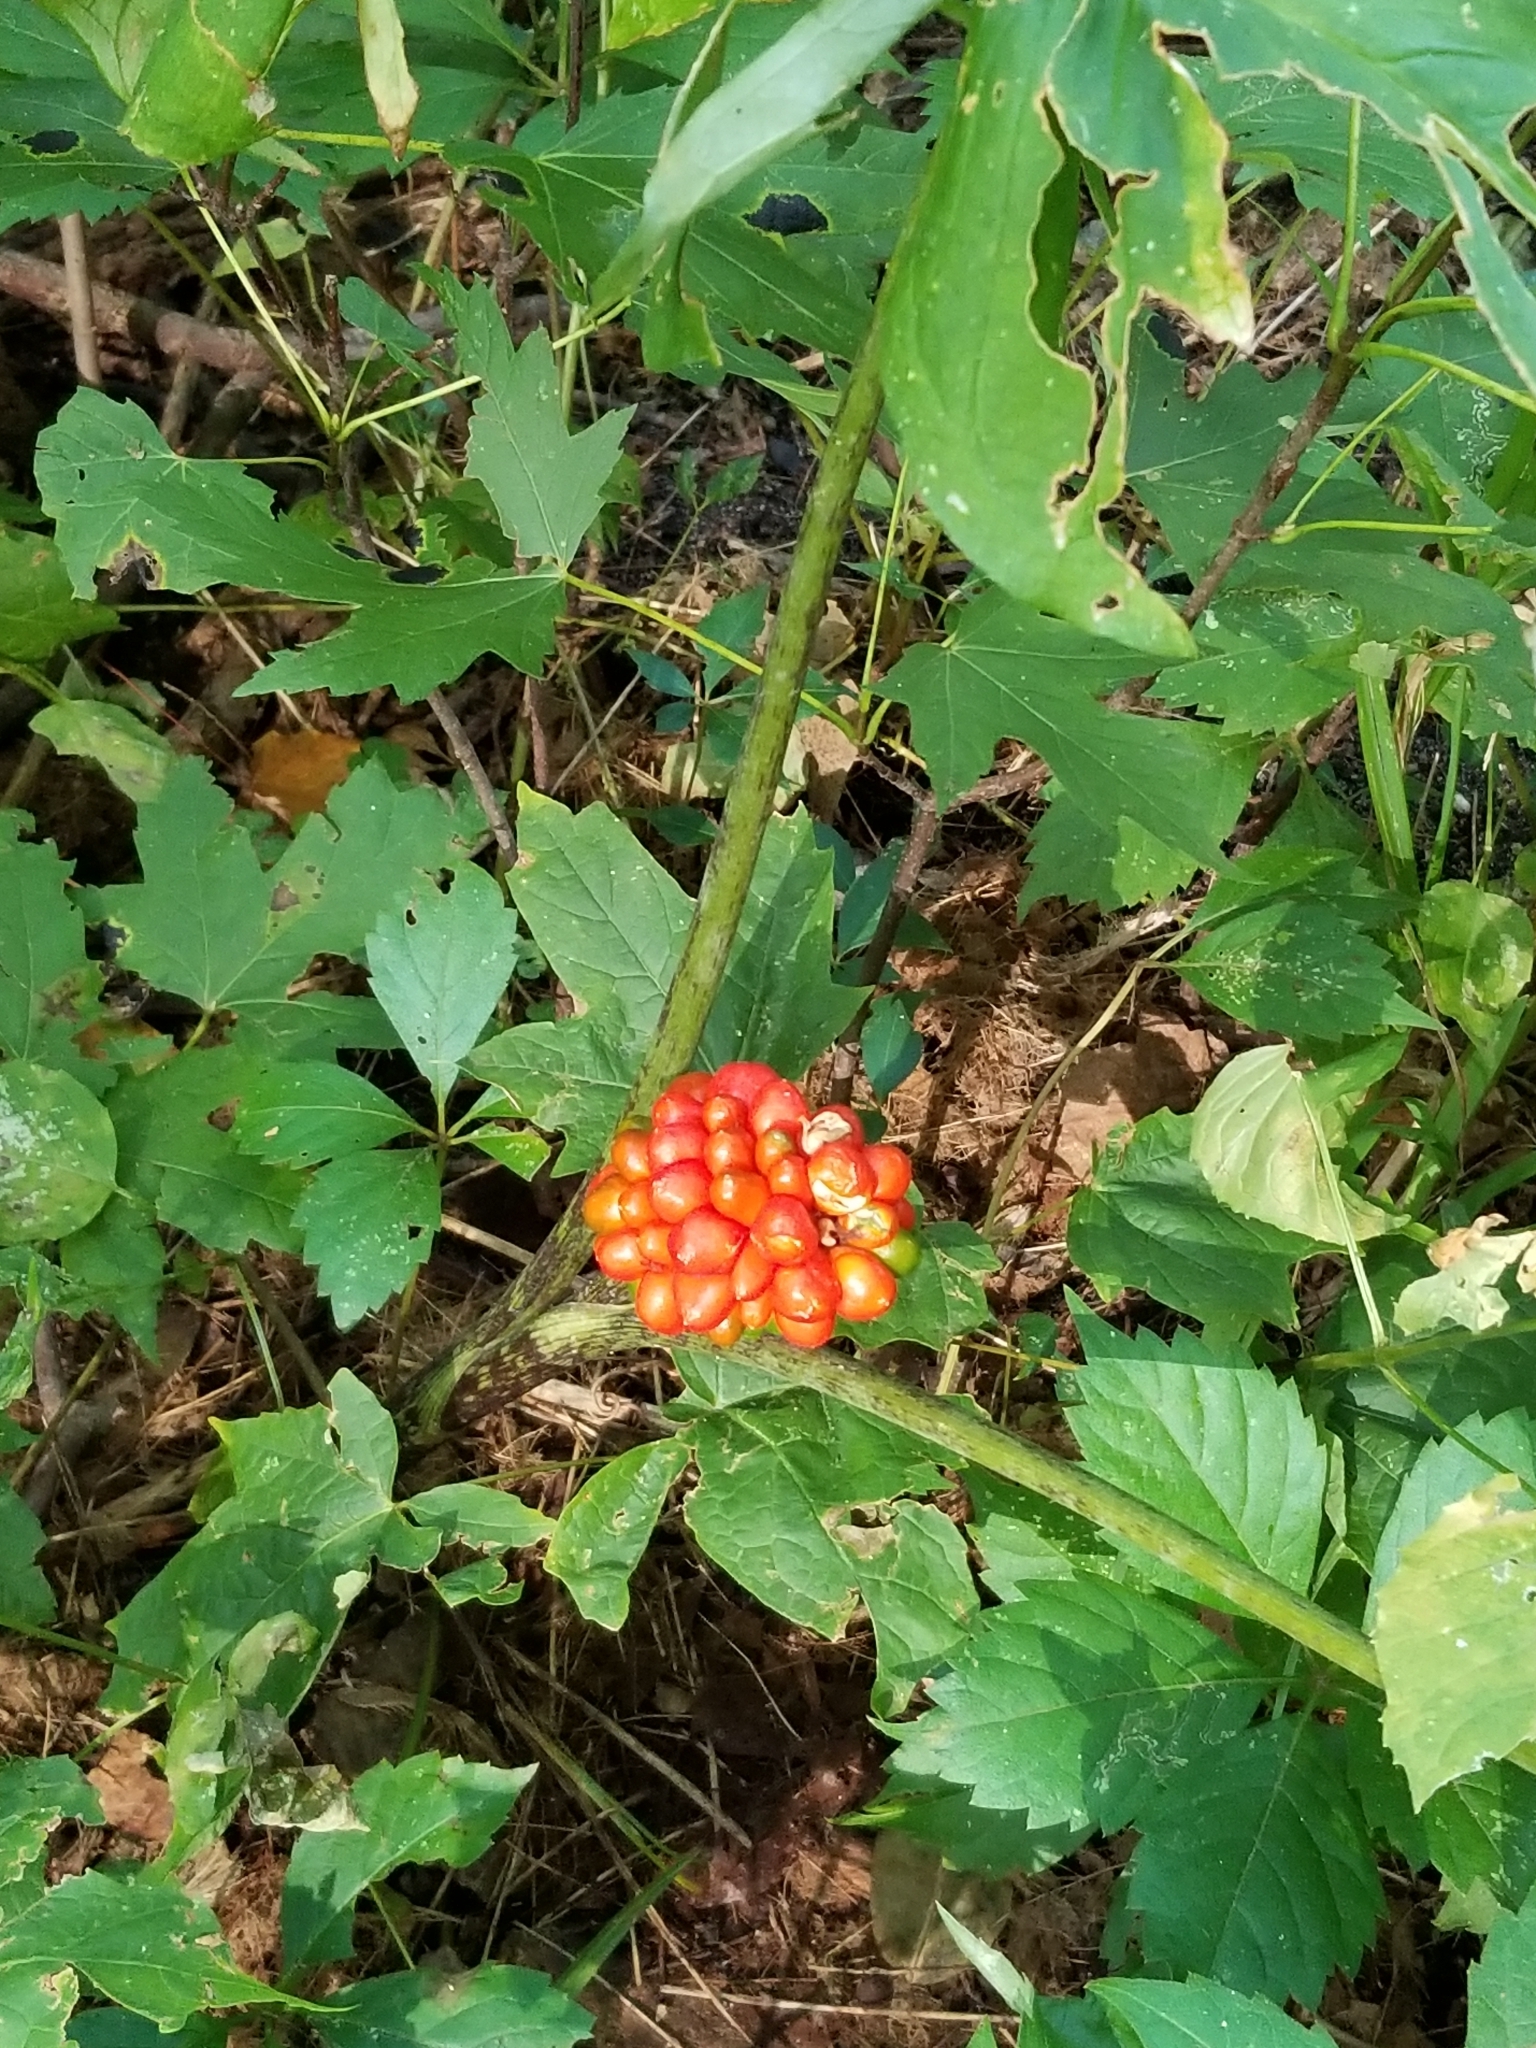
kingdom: Plantae
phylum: Tracheophyta
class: Liliopsida
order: Alismatales
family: Araceae
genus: Arisaema
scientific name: Arisaema triphyllum
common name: Jack-in-the-pulpit
